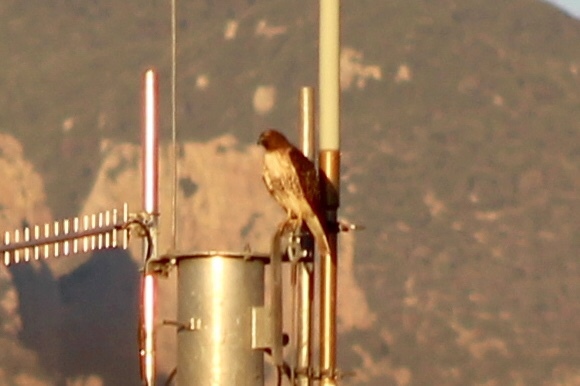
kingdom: Animalia
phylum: Chordata
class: Aves
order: Accipitriformes
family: Accipitridae
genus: Buteo
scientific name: Buteo jamaicensis
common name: Red-tailed hawk
